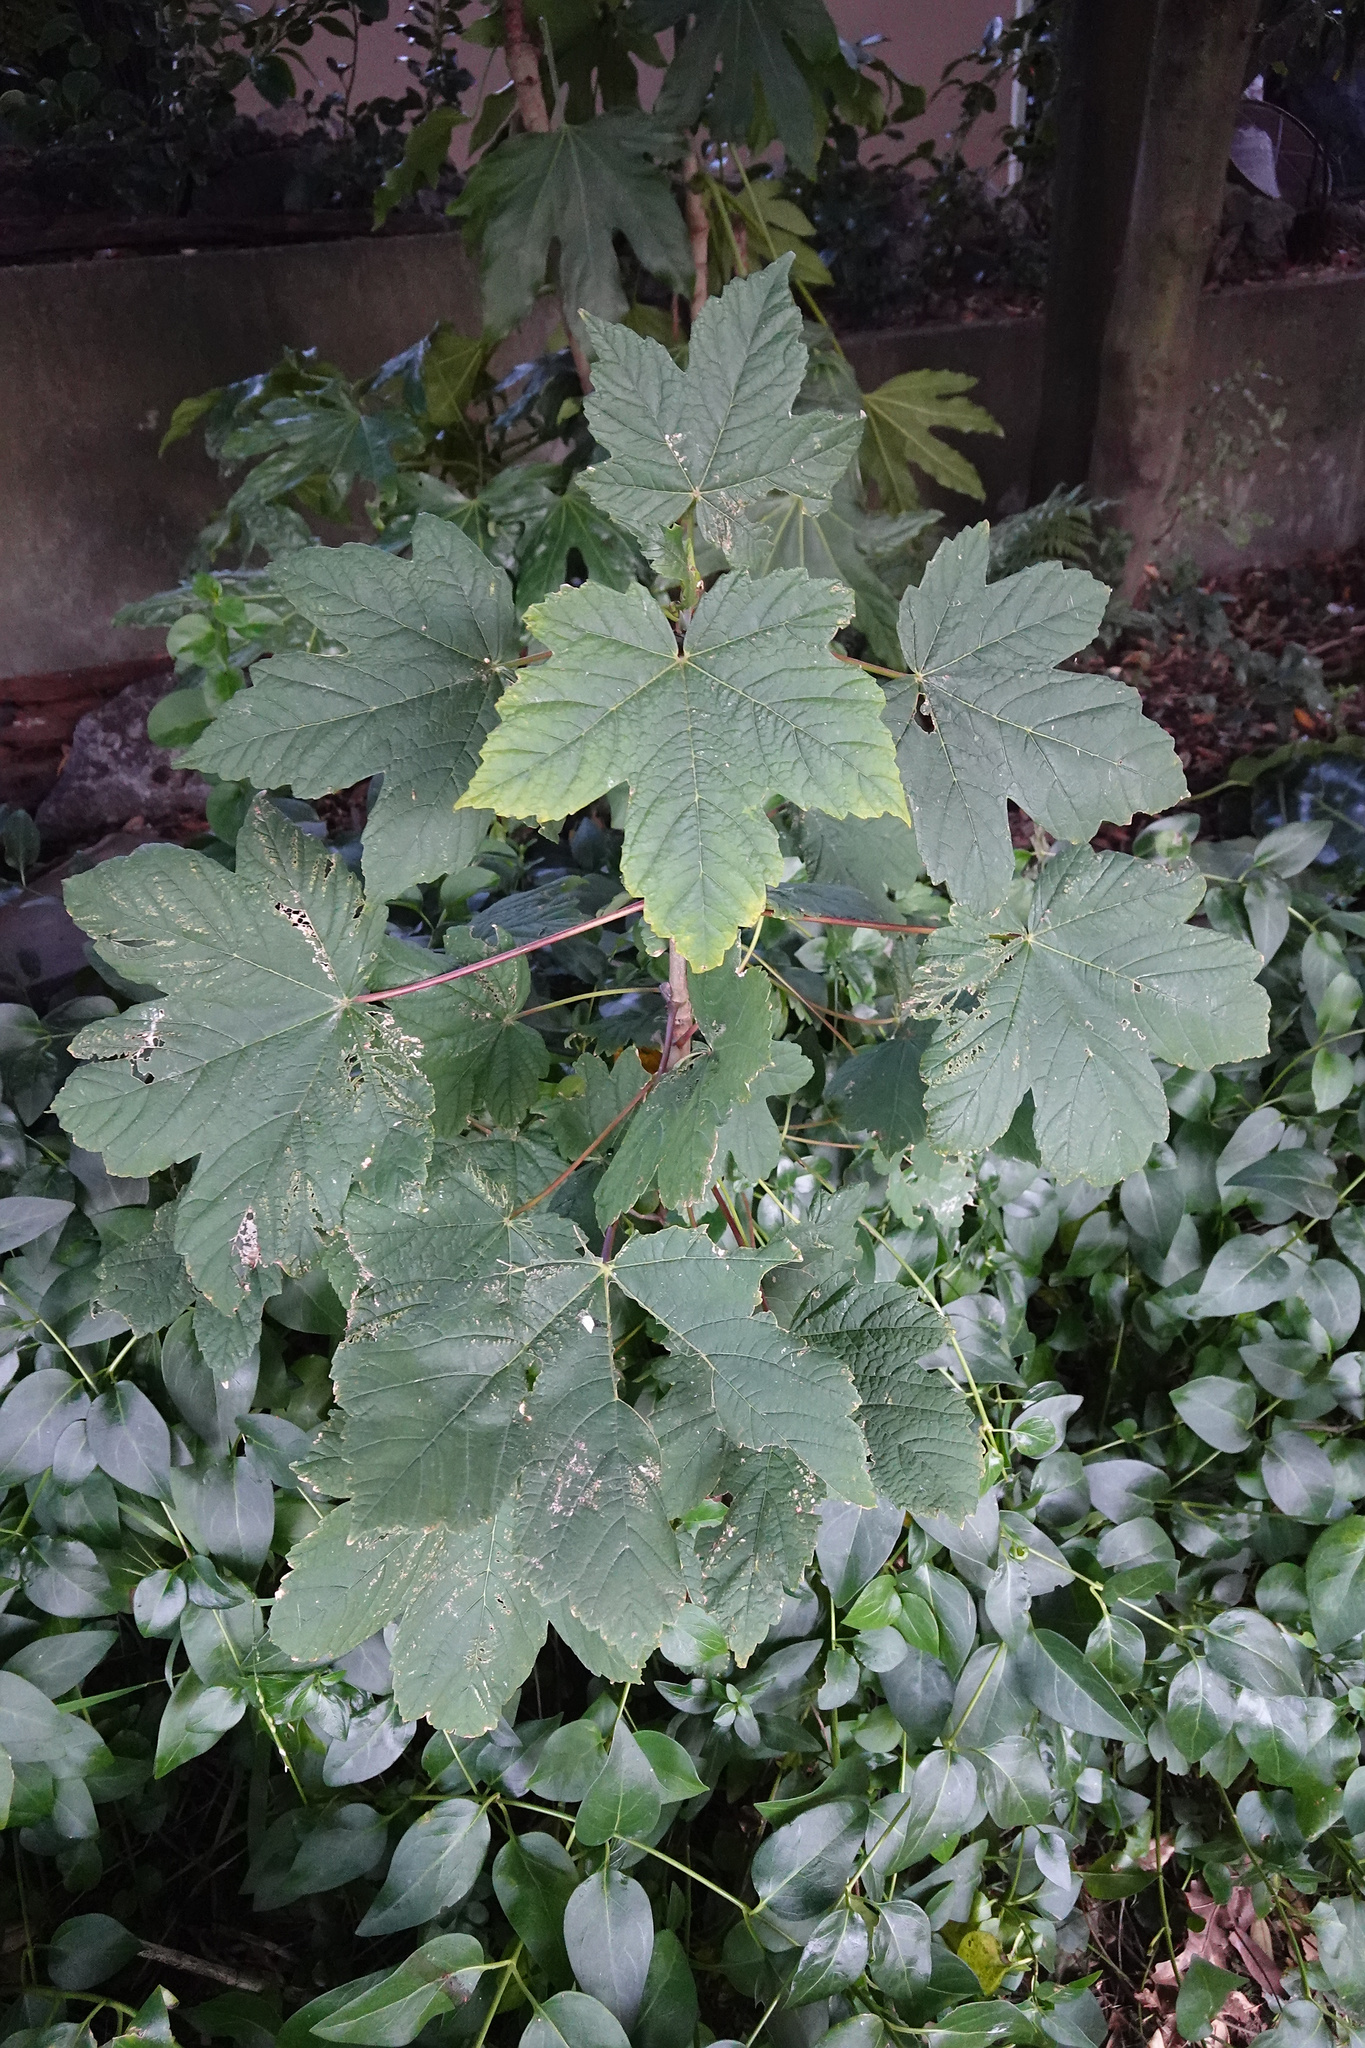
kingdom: Plantae
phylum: Tracheophyta
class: Magnoliopsida
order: Sapindales
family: Sapindaceae
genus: Acer
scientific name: Acer pseudoplatanus
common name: Sycamore
